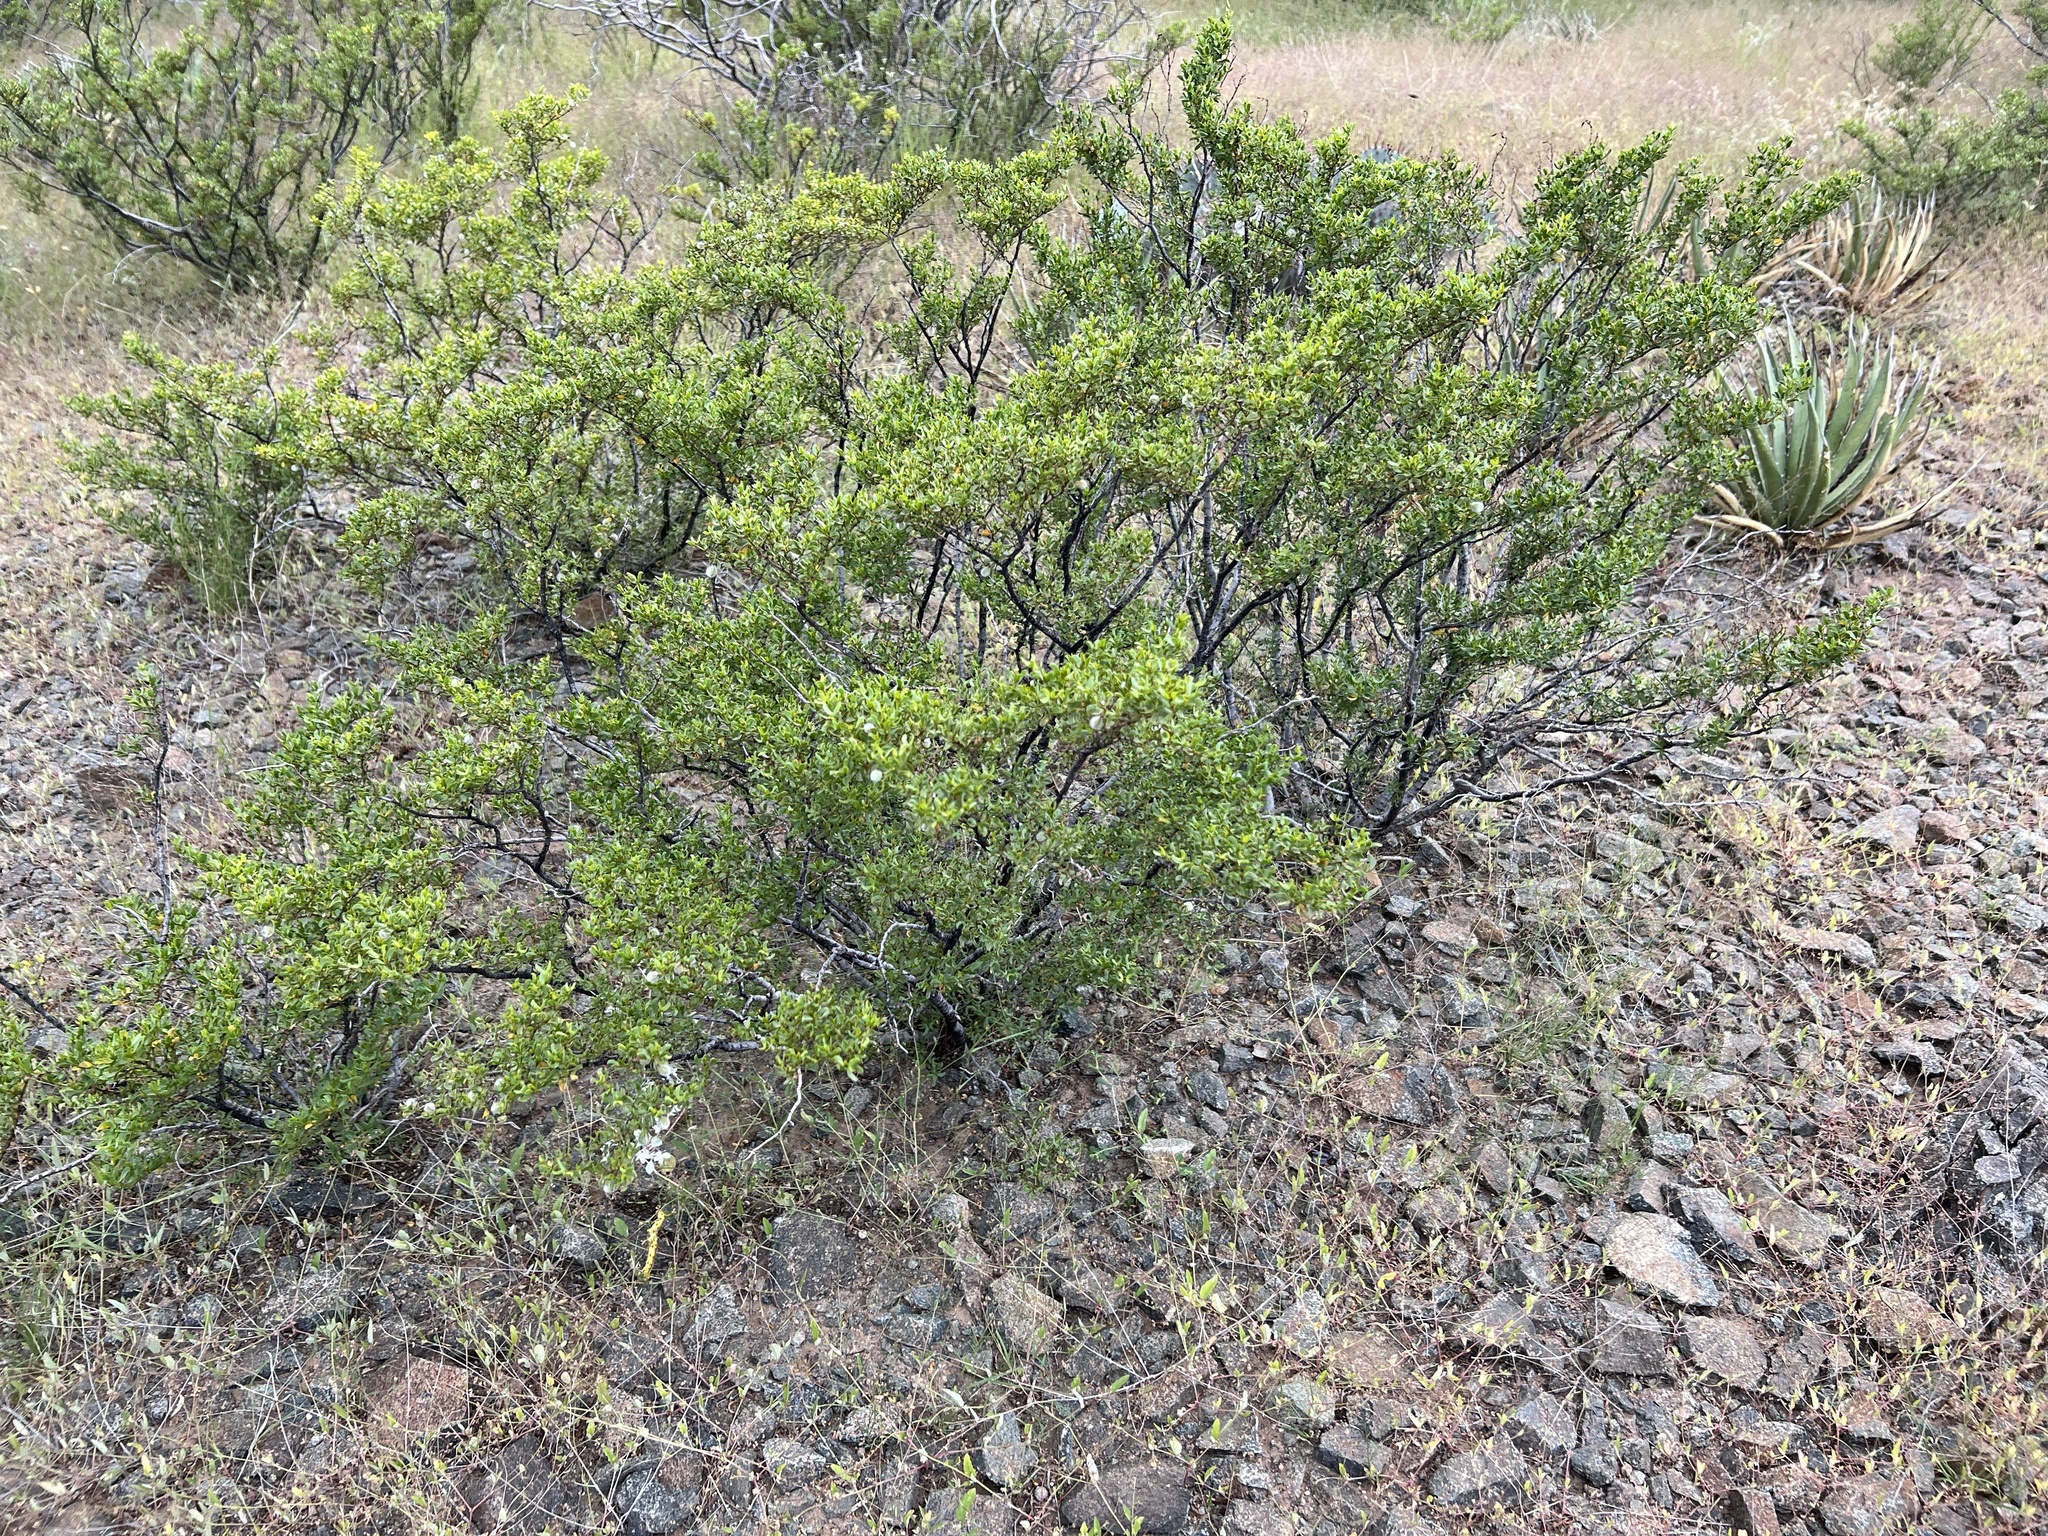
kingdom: Plantae
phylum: Tracheophyta
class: Magnoliopsida
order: Zygophyllales
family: Zygophyllaceae
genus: Larrea
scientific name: Larrea tridentata
